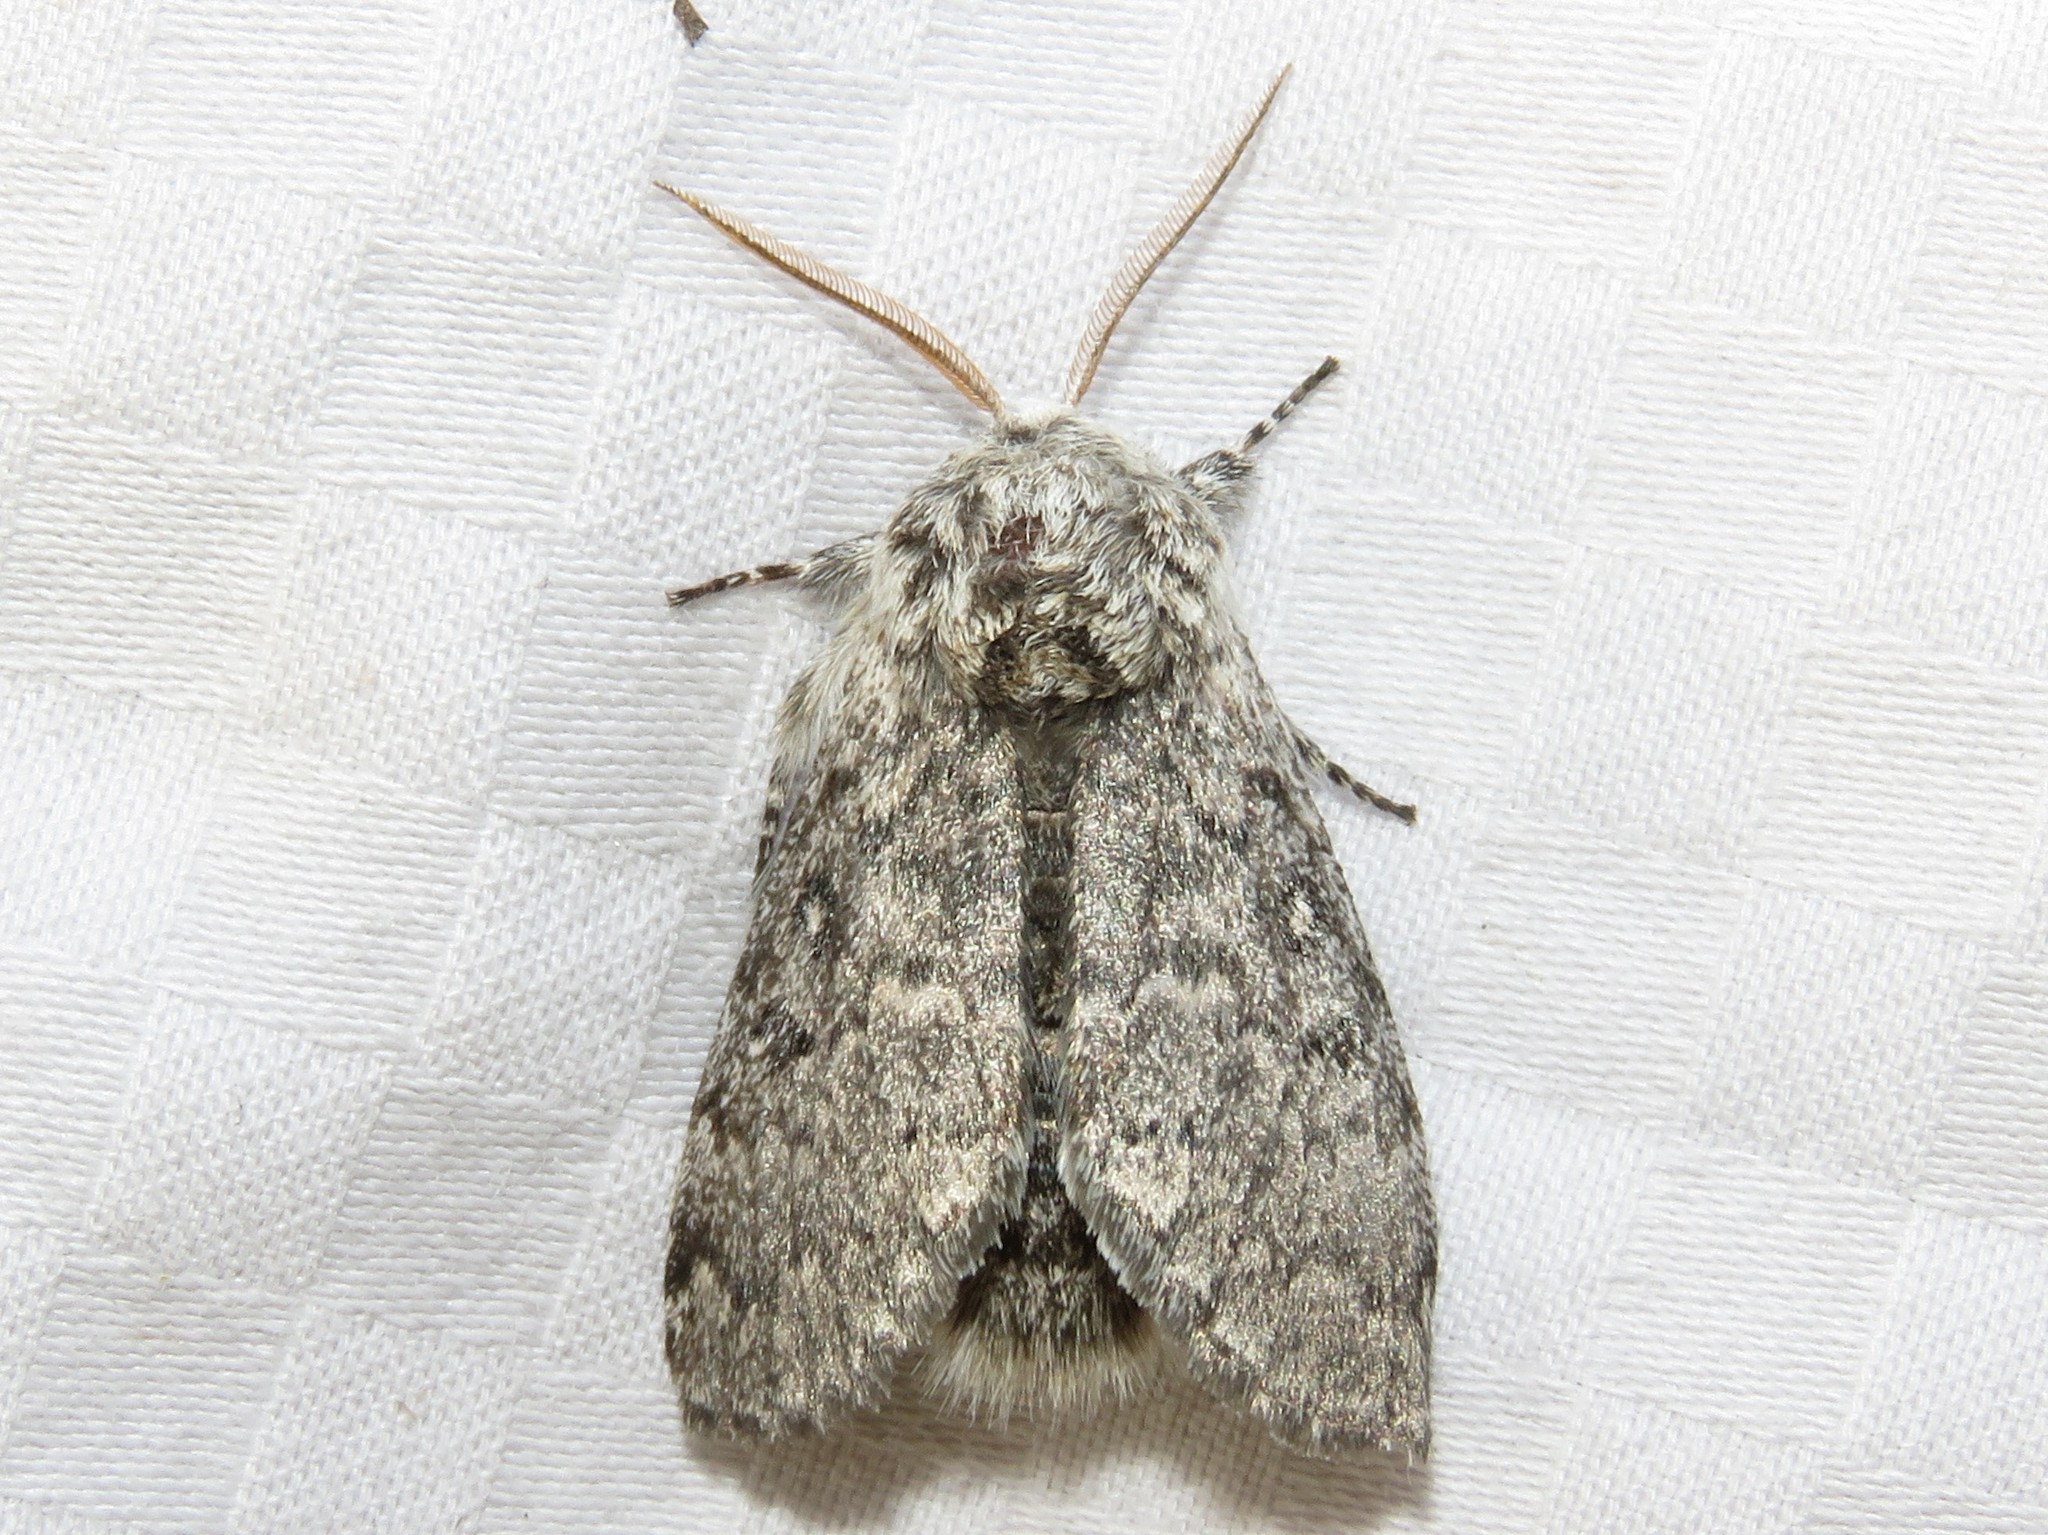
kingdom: Animalia
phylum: Arthropoda
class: Insecta
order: Lepidoptera
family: Noctuidae
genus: Colocasia
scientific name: Colocasia propinquilinea
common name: Close-banded demas
